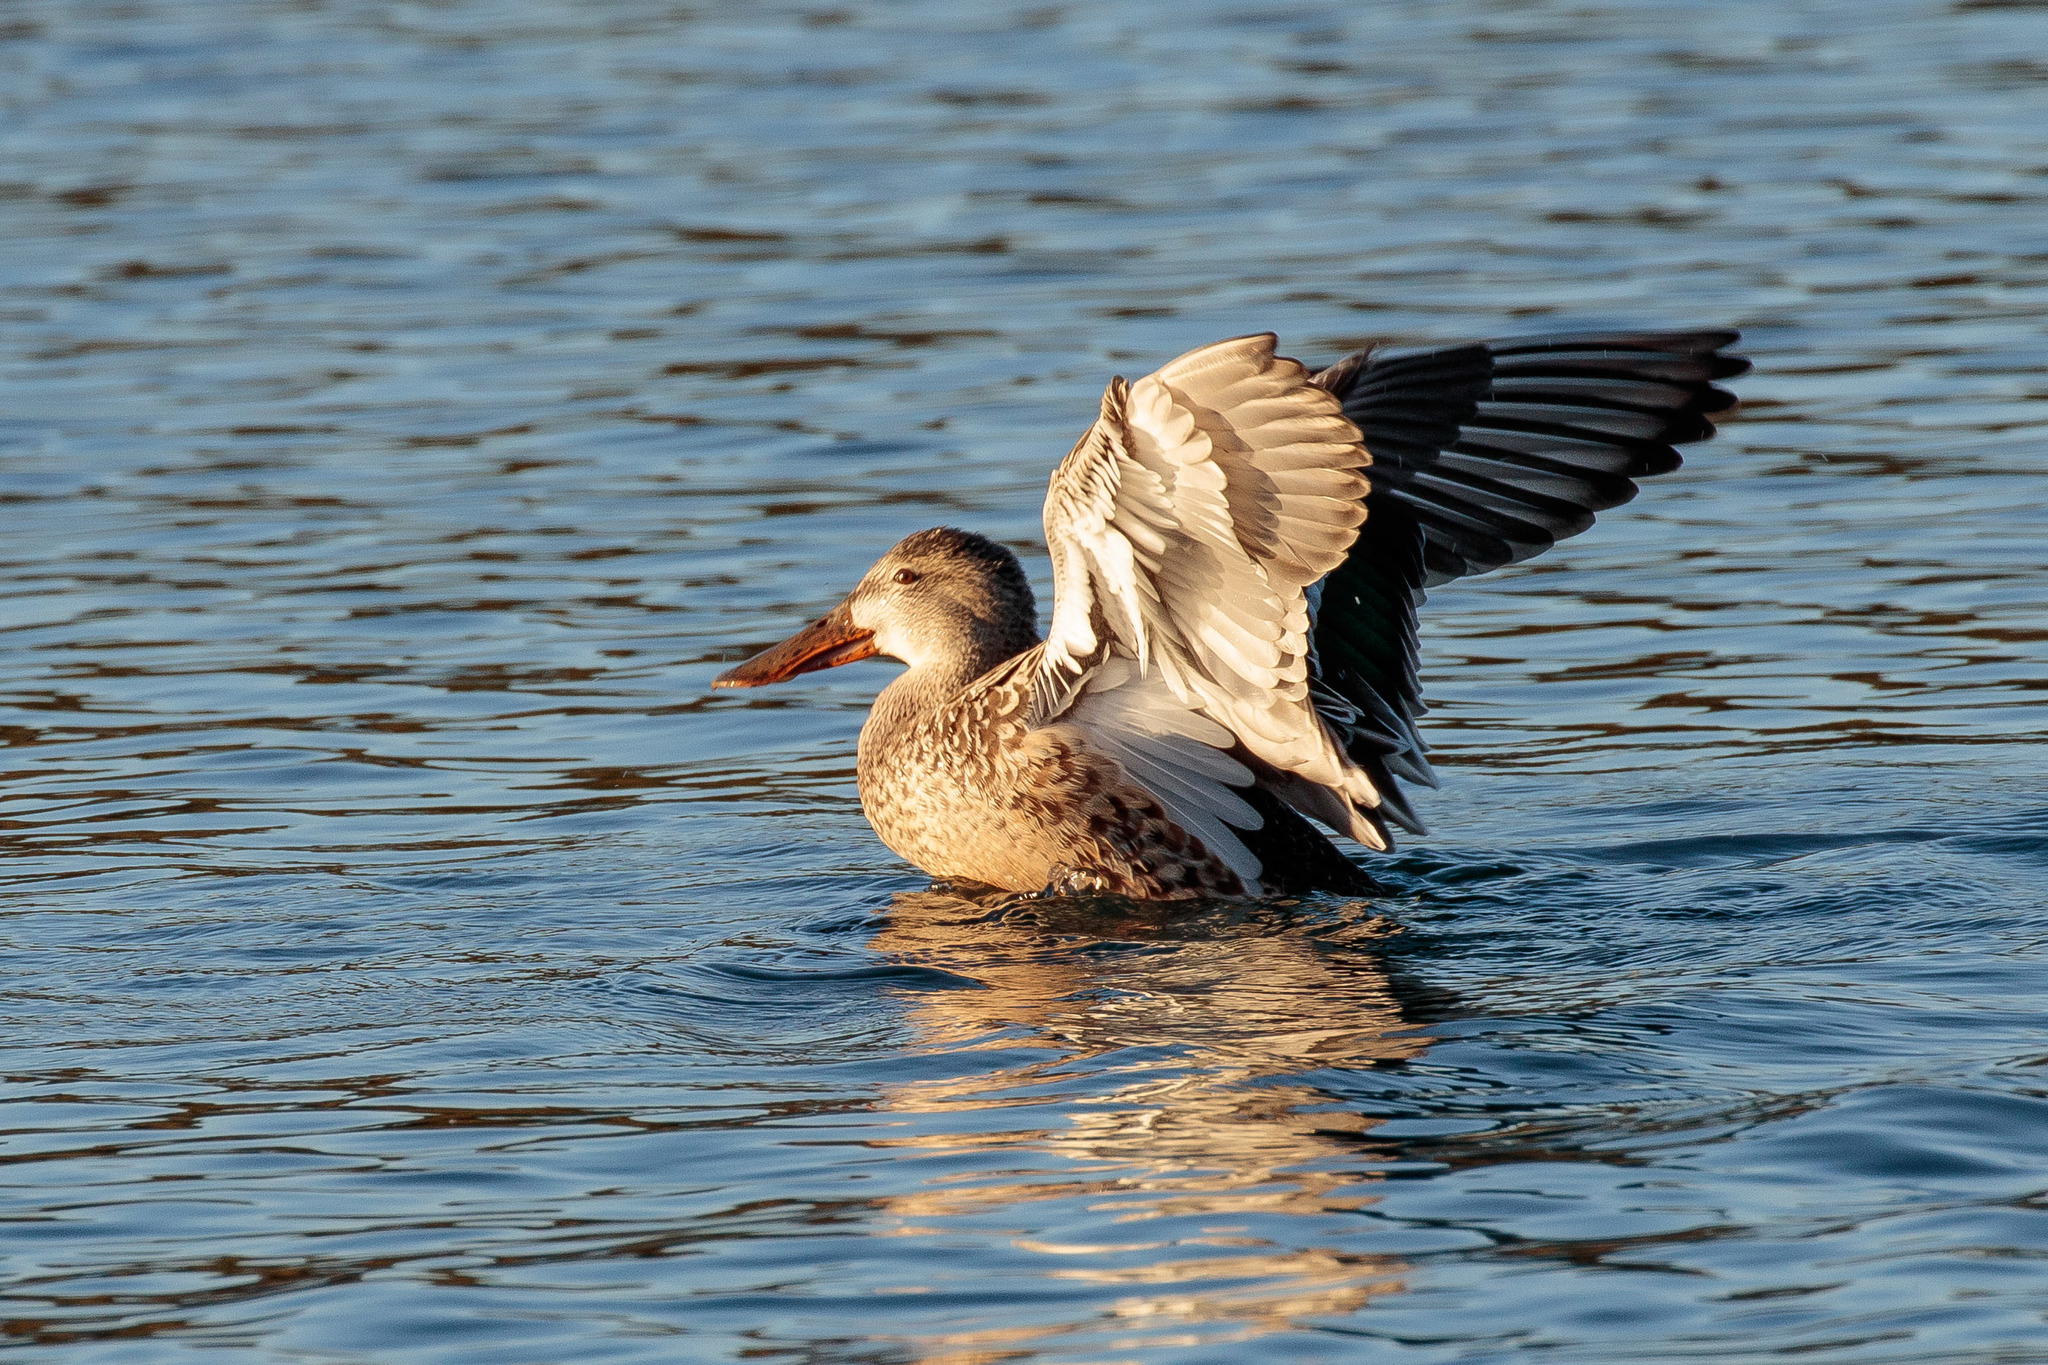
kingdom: Animalia
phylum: Chordata
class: Aves
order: Anseriformes
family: Anatidae
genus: Spatula
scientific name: Spatula clypeata
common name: Northern shoveler
